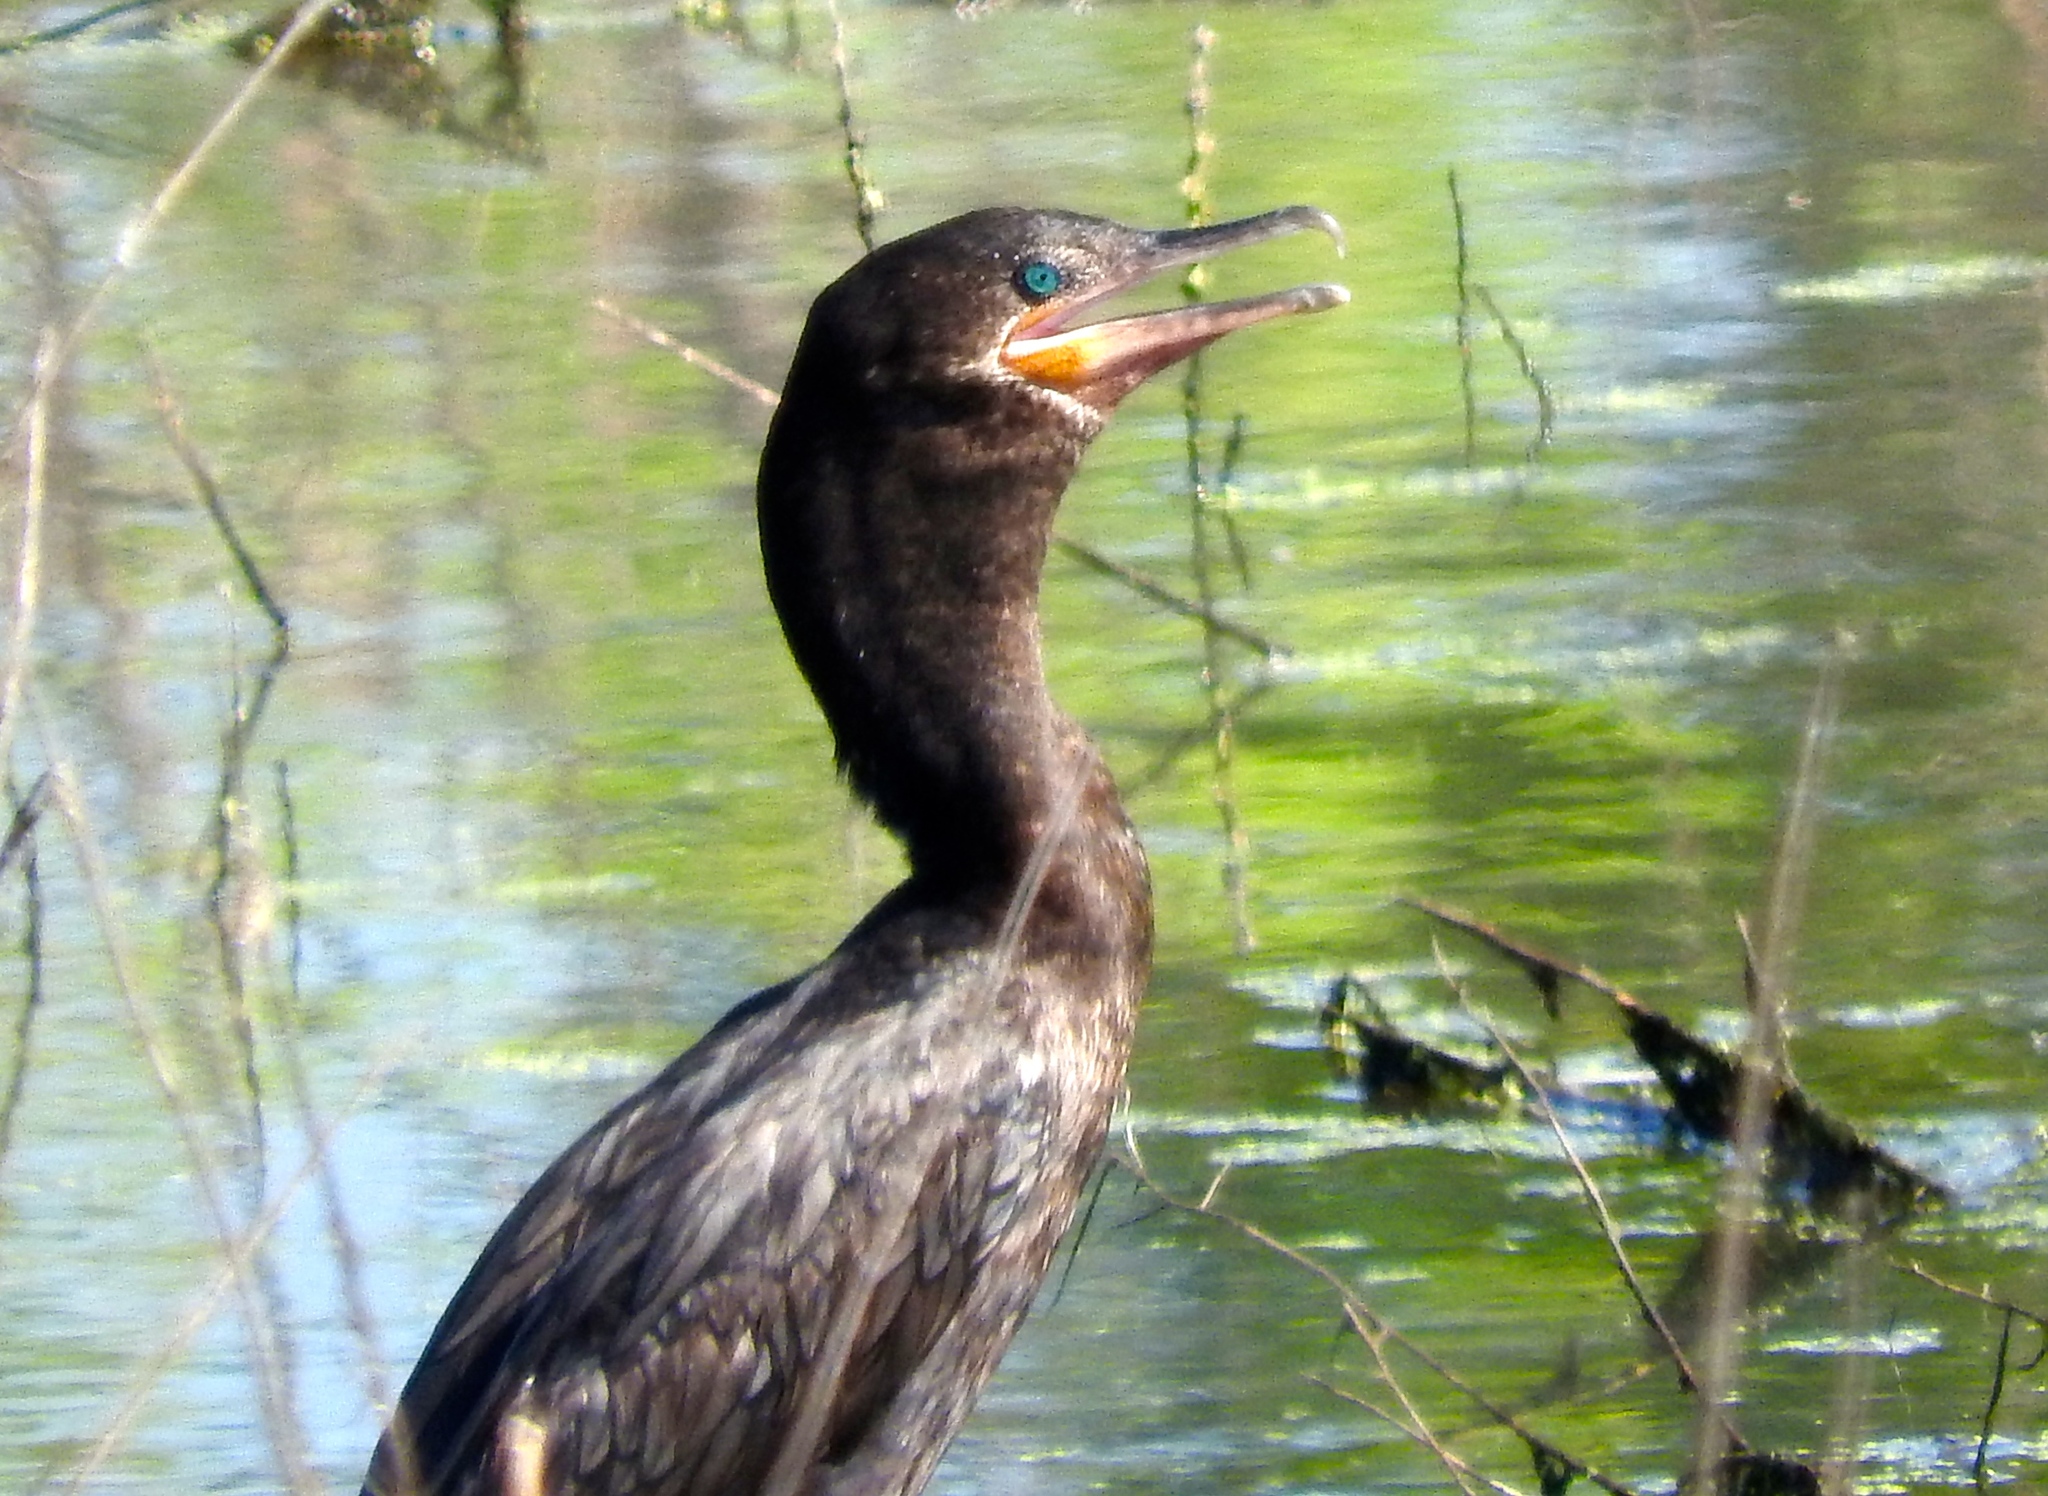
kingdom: Animalia
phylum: Chordata
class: Aves
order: Suliformes
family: Phalacrocoracidae
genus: Phalacrocorax
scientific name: Phalacrocorax brasilianus
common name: Neotropic cormorant
